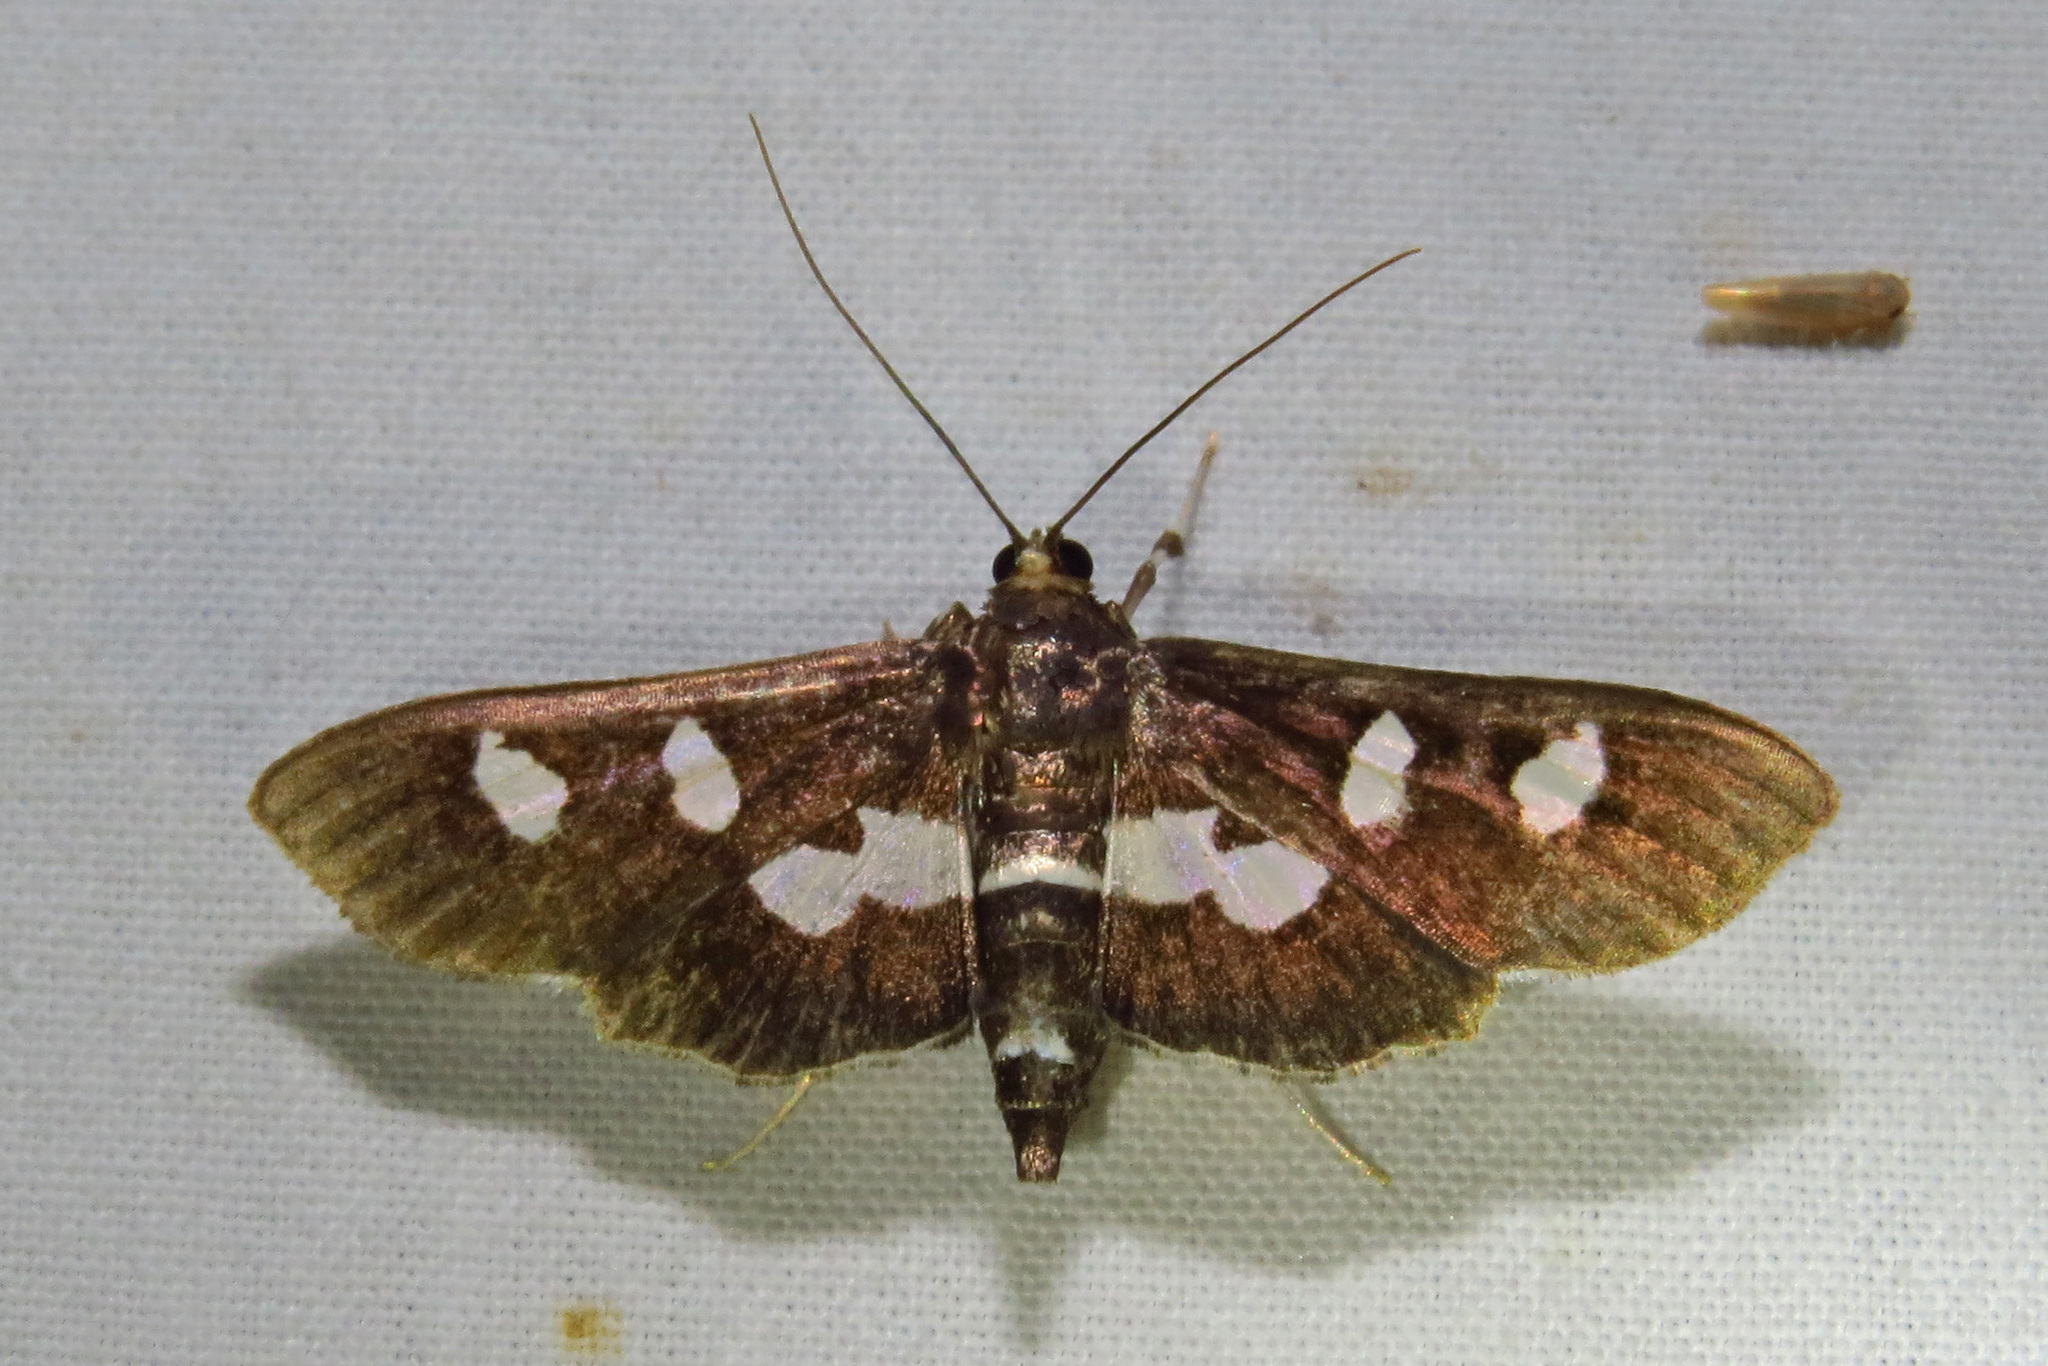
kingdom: Animalia
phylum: Arthropoda
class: Insecta
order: Lepidoptera
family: Crambidae
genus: Desmia
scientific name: Desmia funeralis
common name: Grape leaf folder moth
